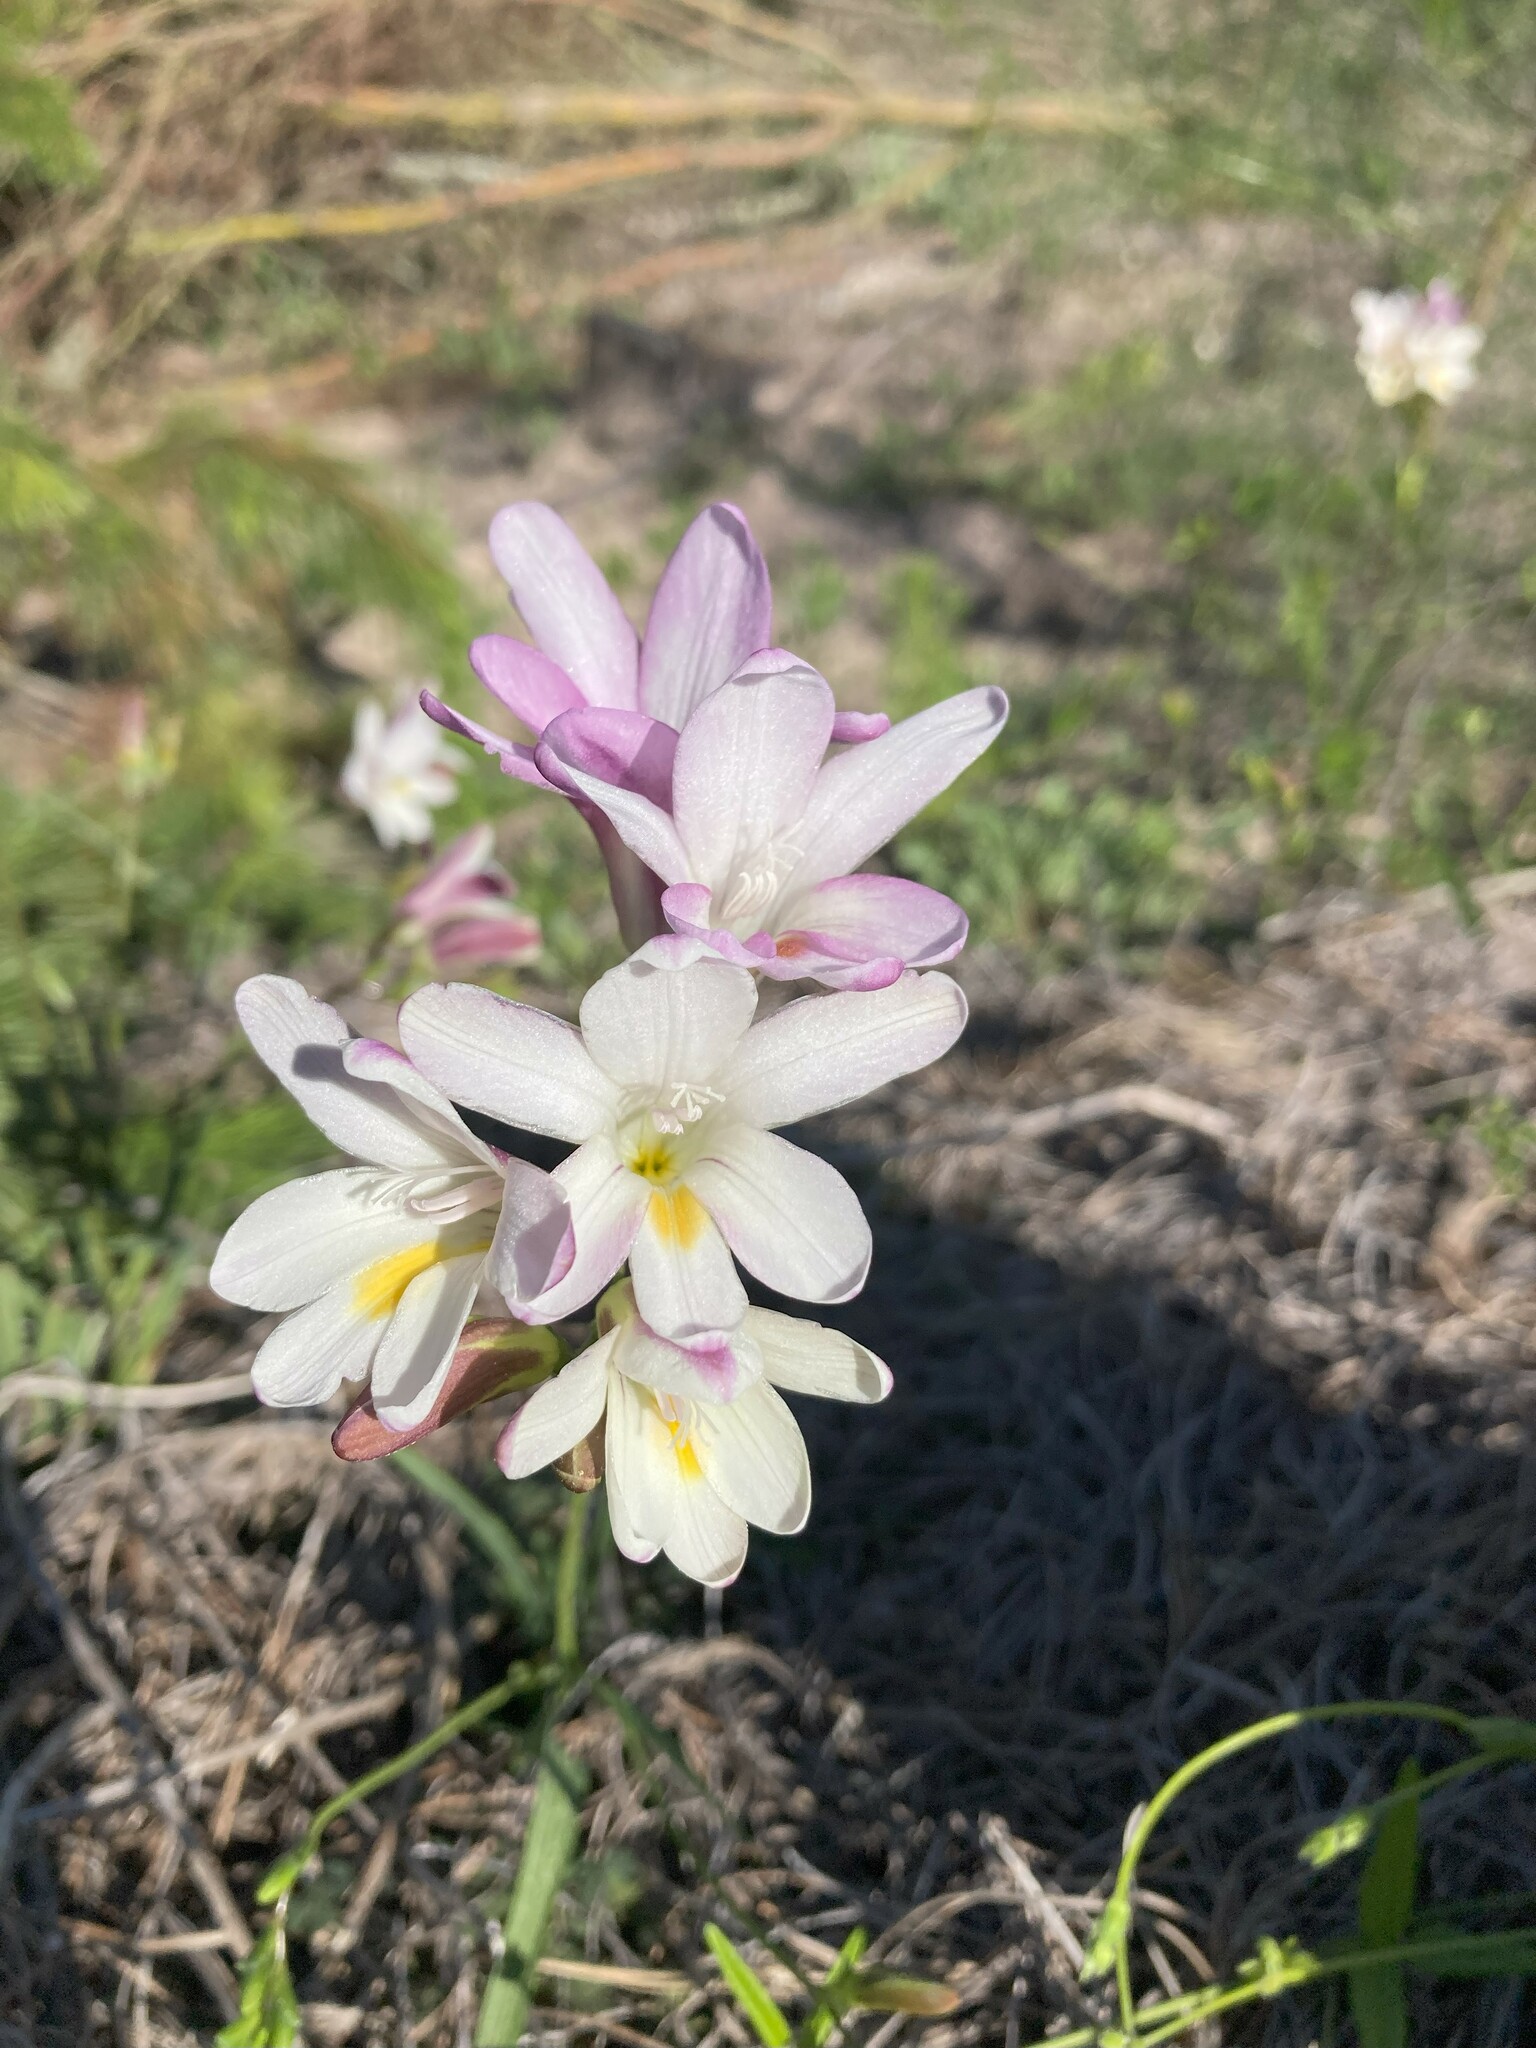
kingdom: Plantae
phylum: Tracheophyta
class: Liliopsida
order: Asparagales
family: Iridaceae
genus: Freesia
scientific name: Freesia leichtlinii
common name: Freesia
